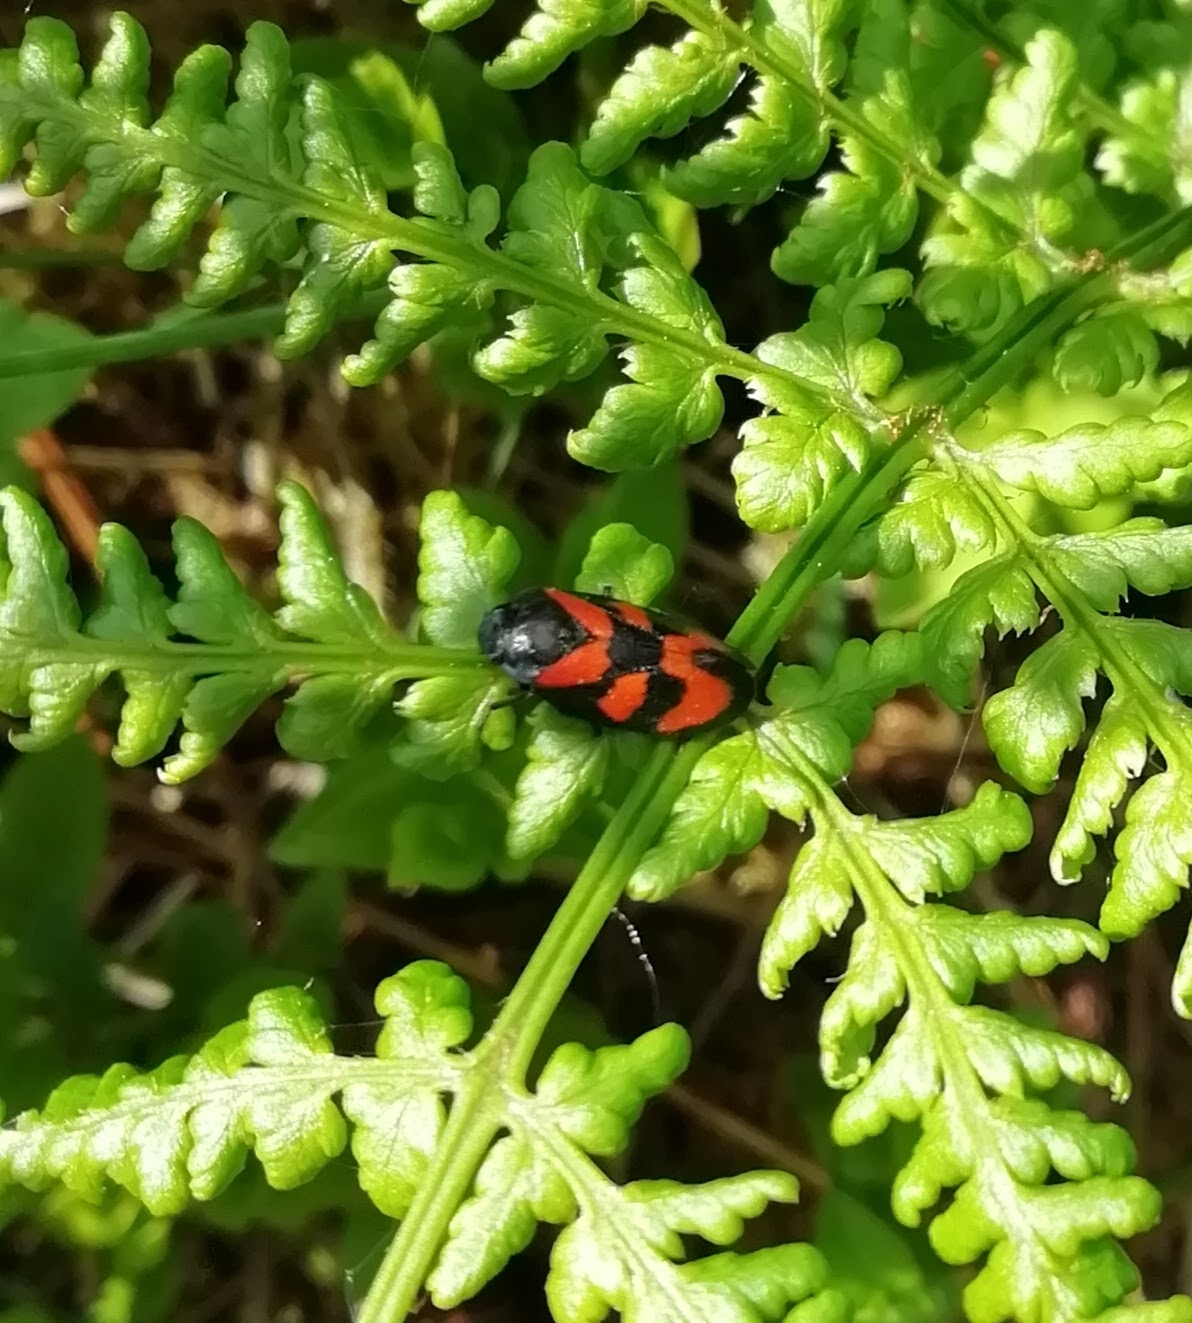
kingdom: Animalia
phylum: Arthropoda
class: Insecta
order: Hemiptera
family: Cercopidae
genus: Cercopis
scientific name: Cercopis vulnerata
